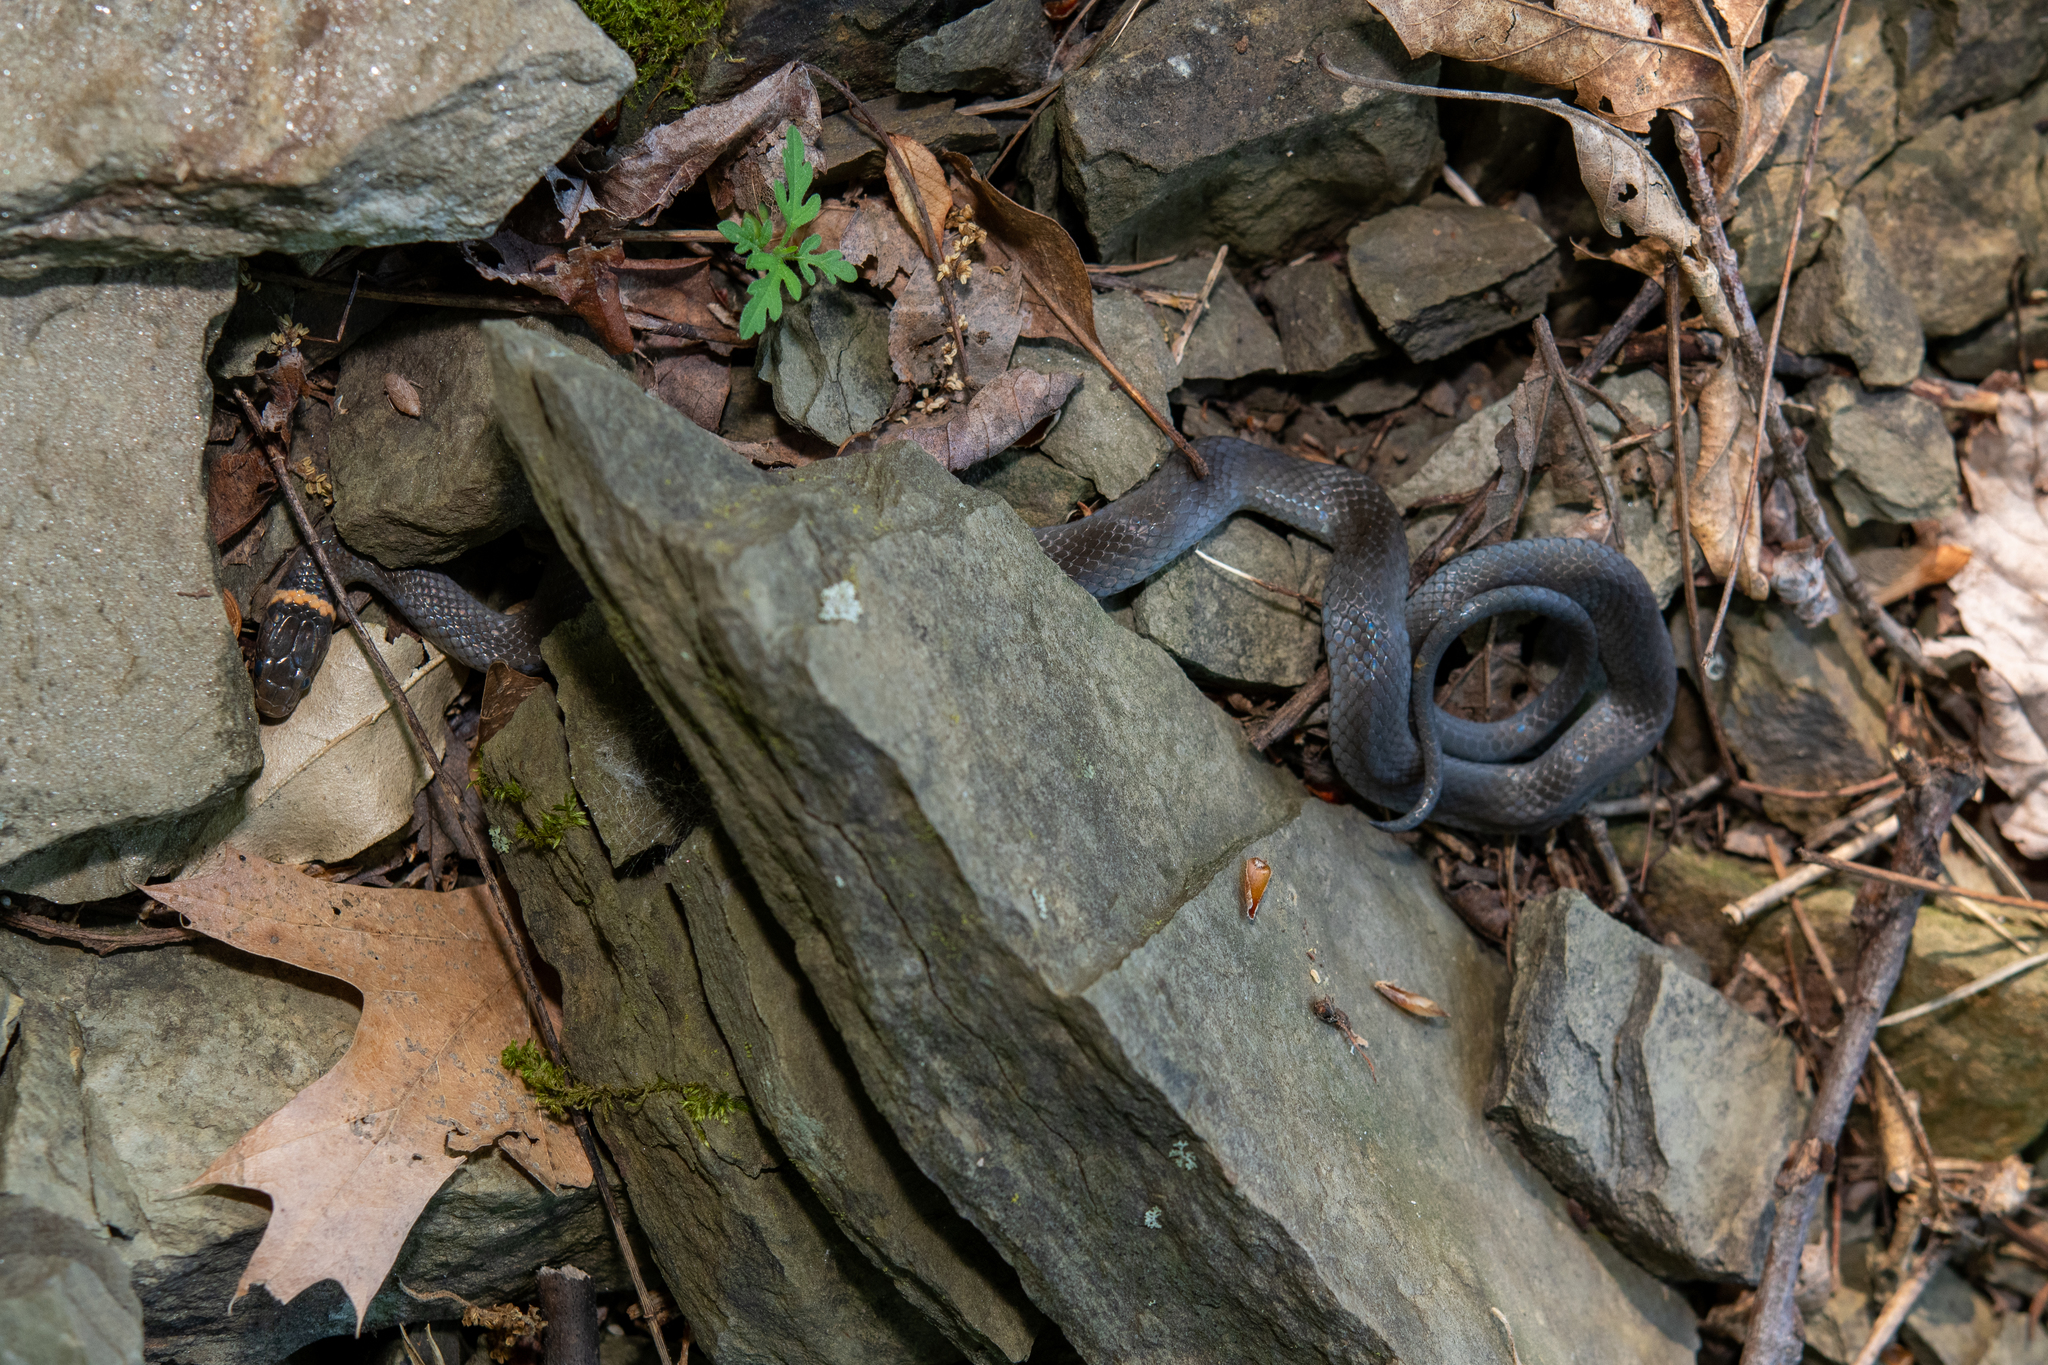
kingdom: Animalia
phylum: Chordata
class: Squamata
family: Colubridae
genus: Diadophis
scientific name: Diadophis punctatus
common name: Ringneck snake
